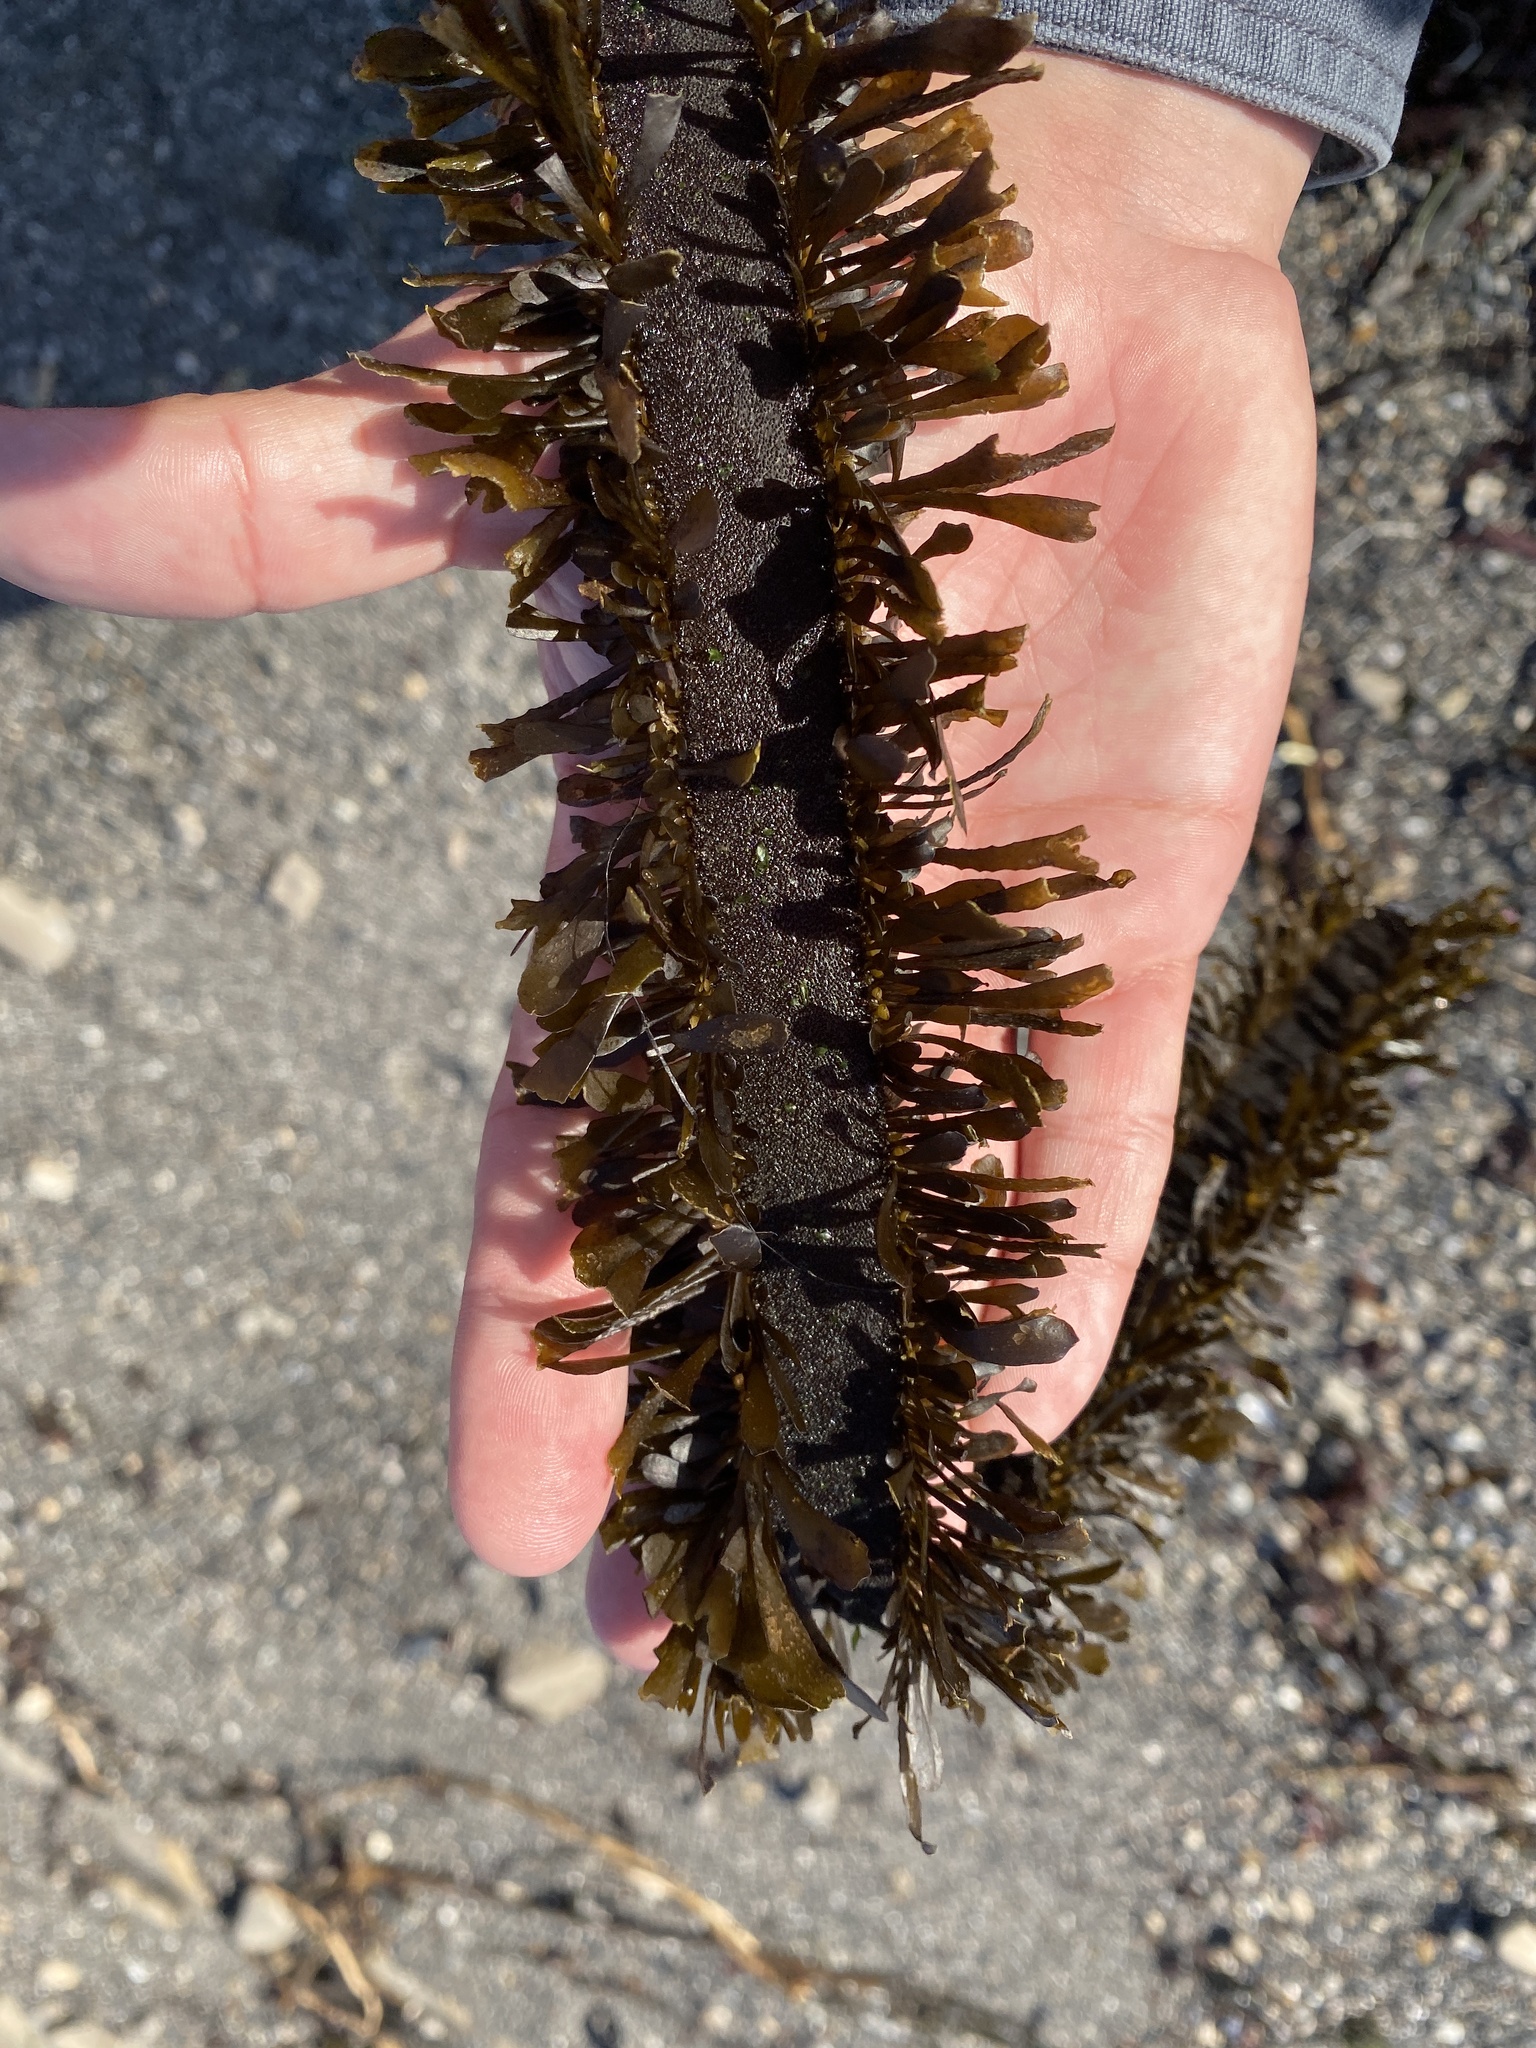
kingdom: Chromista
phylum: Ochrophyta
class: Phaeophyceae
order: Laminariales
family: Lessoniaceae
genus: Egregia
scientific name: Egregia menziesii
